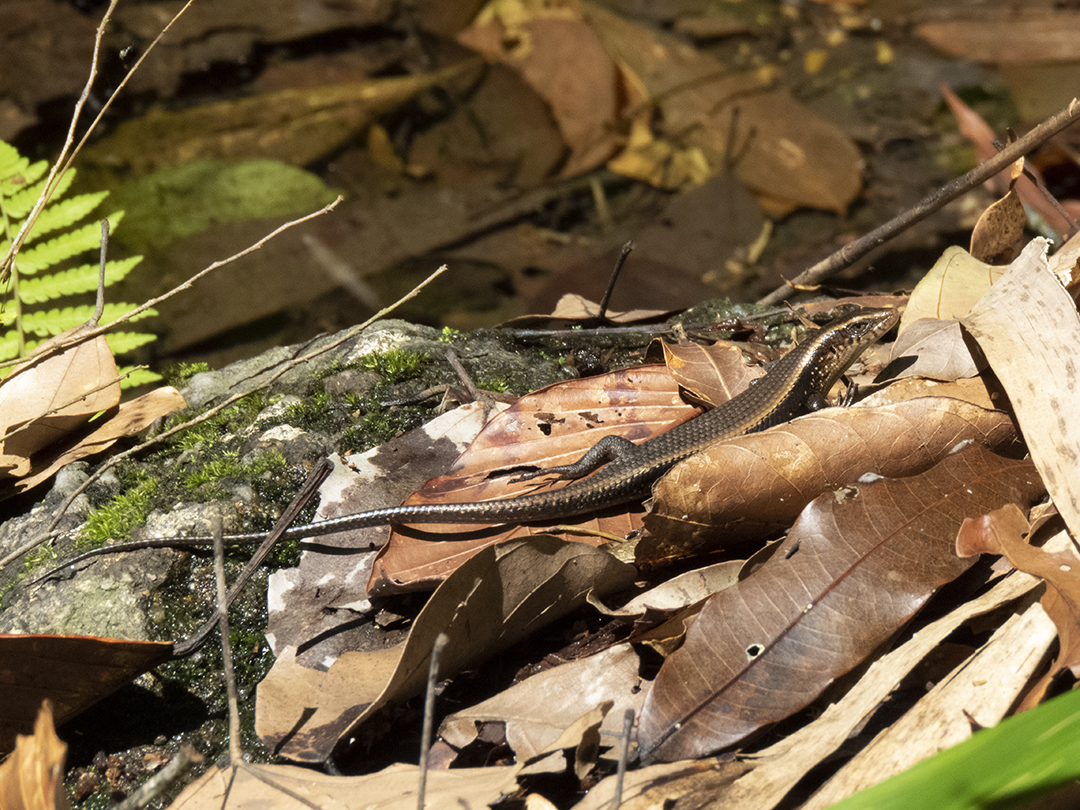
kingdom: Animalia
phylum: Chordata
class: Squamata
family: Scincidae
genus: Eutropis
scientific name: Eutropis multifasciata
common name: Common mabuya
